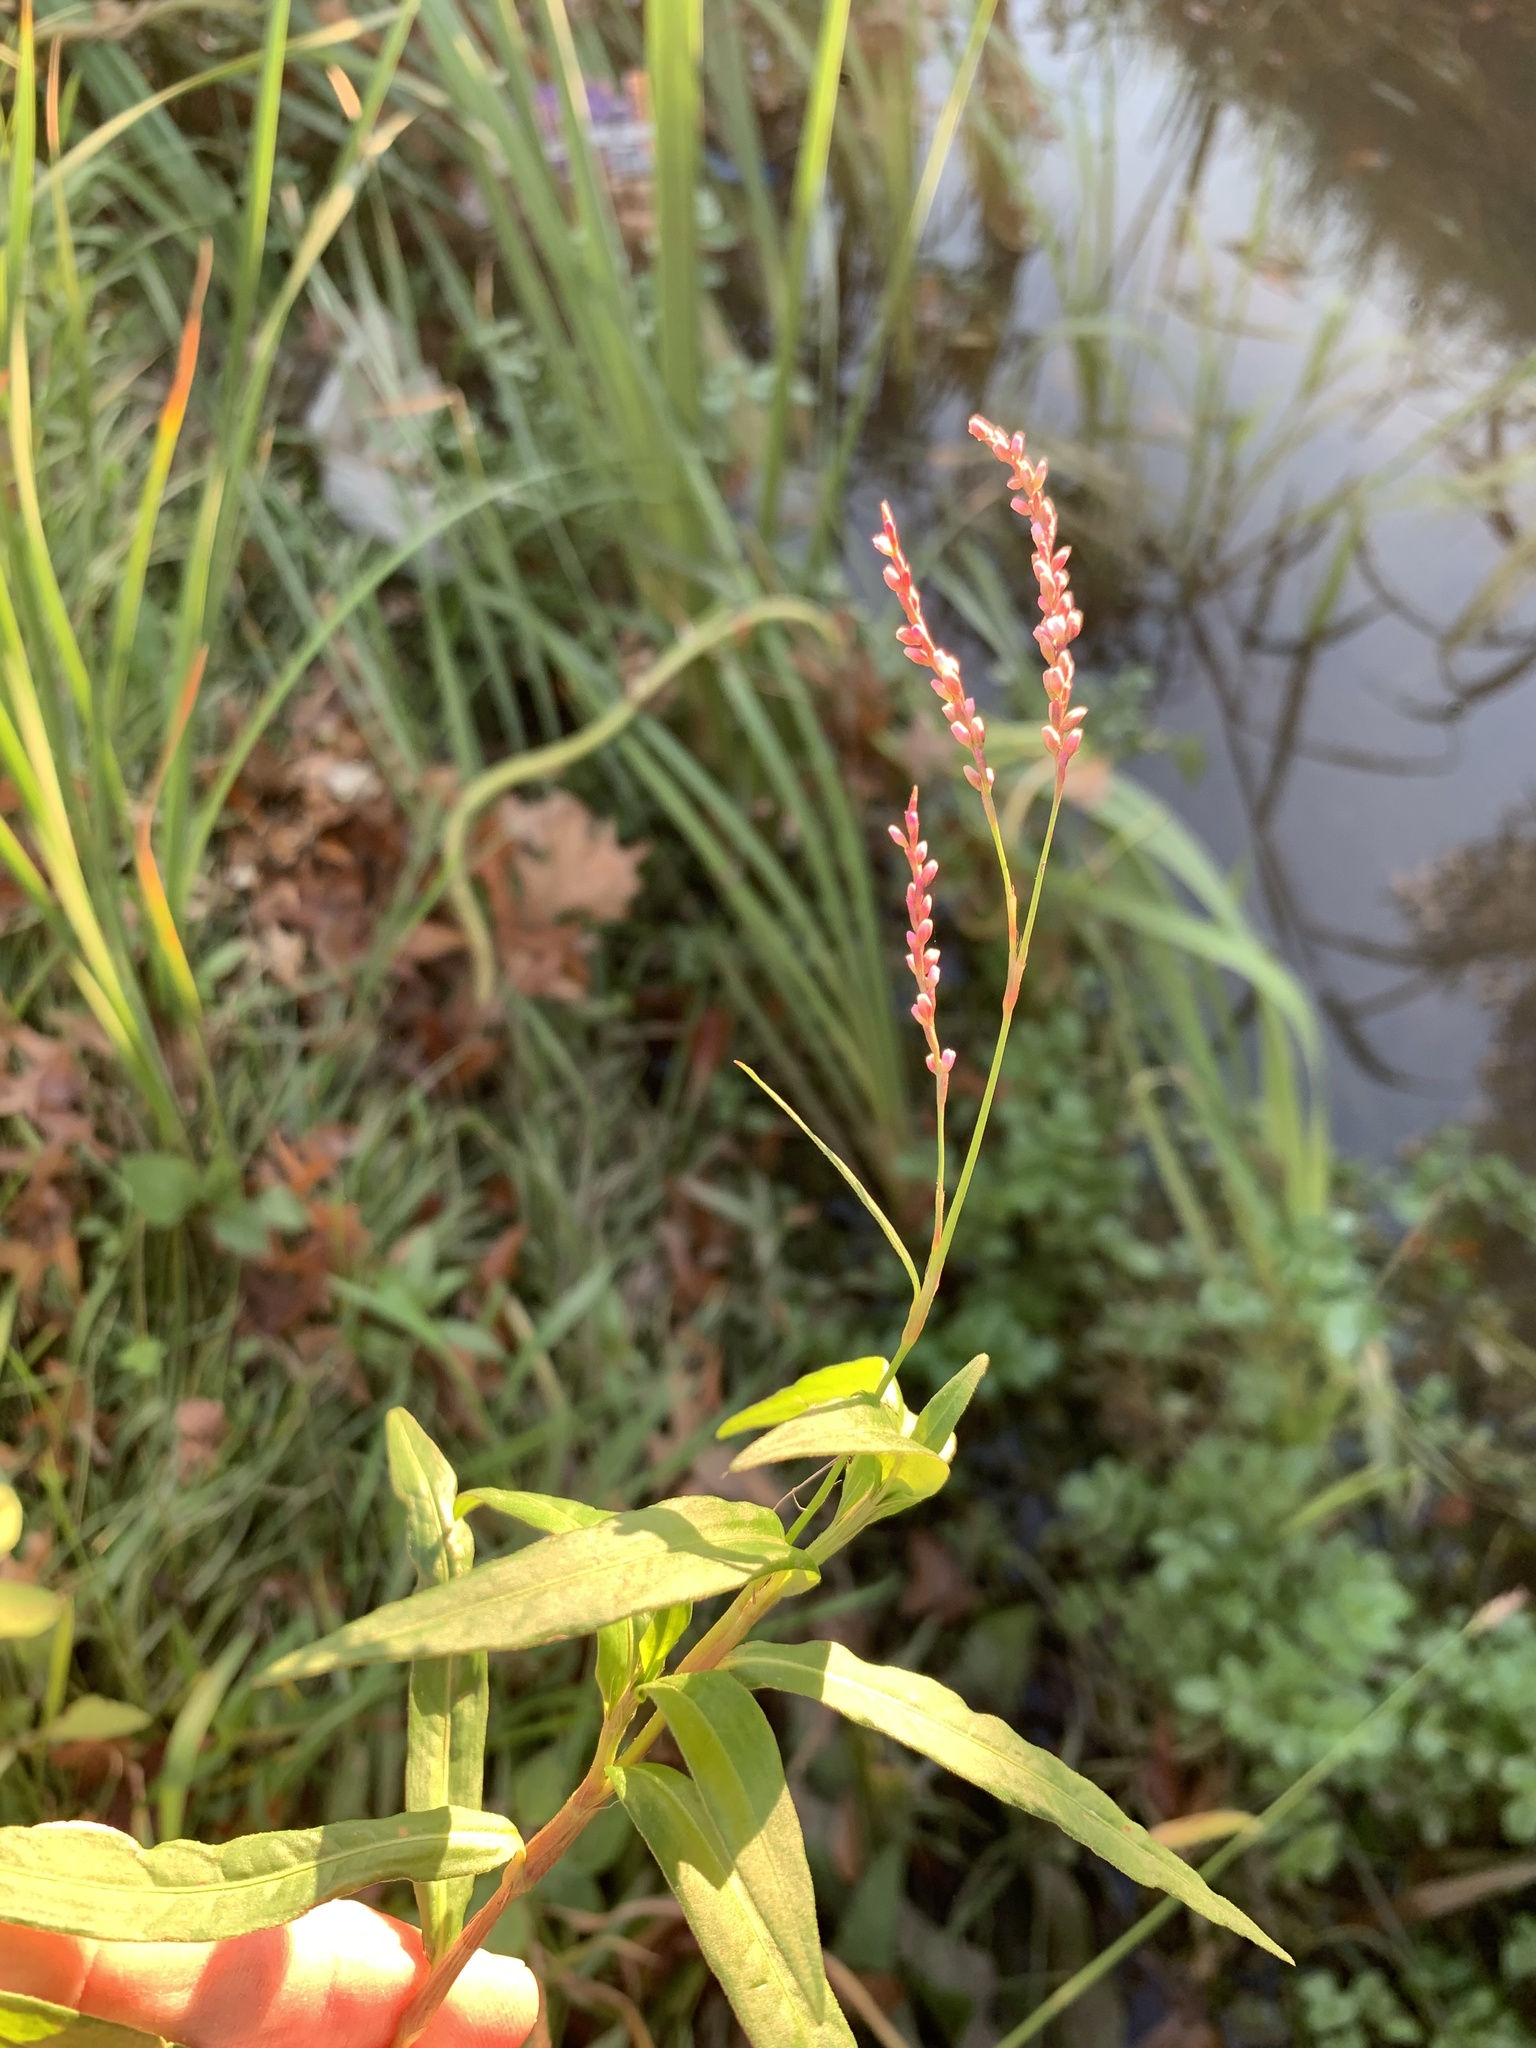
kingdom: Plantae
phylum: Tracheophyta
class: Magnoliopsida
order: Caryophyllales
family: Polygonaceae
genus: Persicaria
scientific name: Persicaria decipiens
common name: Willow-weed
